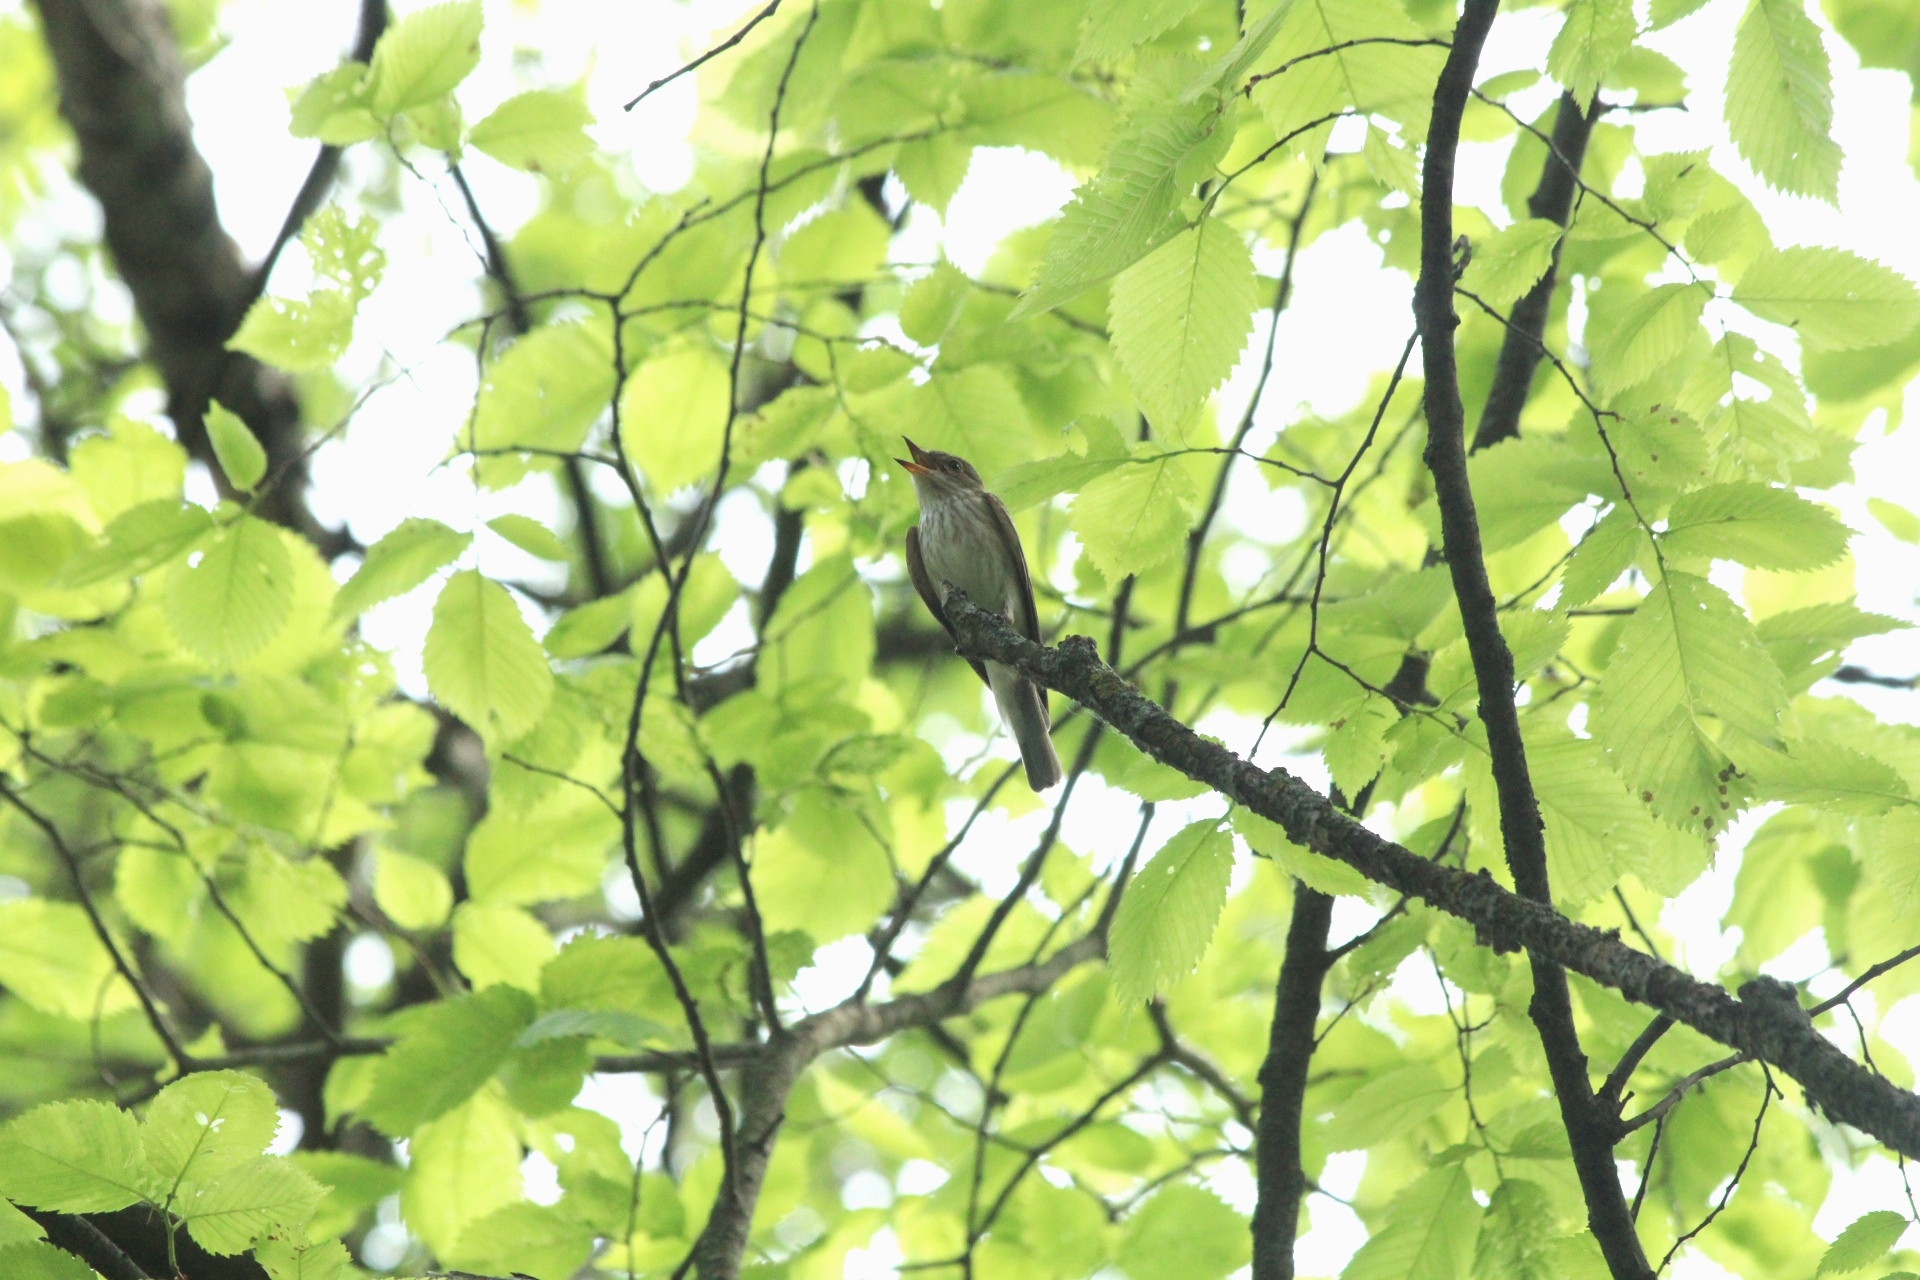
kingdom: Animalia
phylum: Chordata
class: Aves
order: Passeriformes
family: Muscicapidae
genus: Muscicapa
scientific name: Muscicapa striata
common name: Spotted flycatcher
